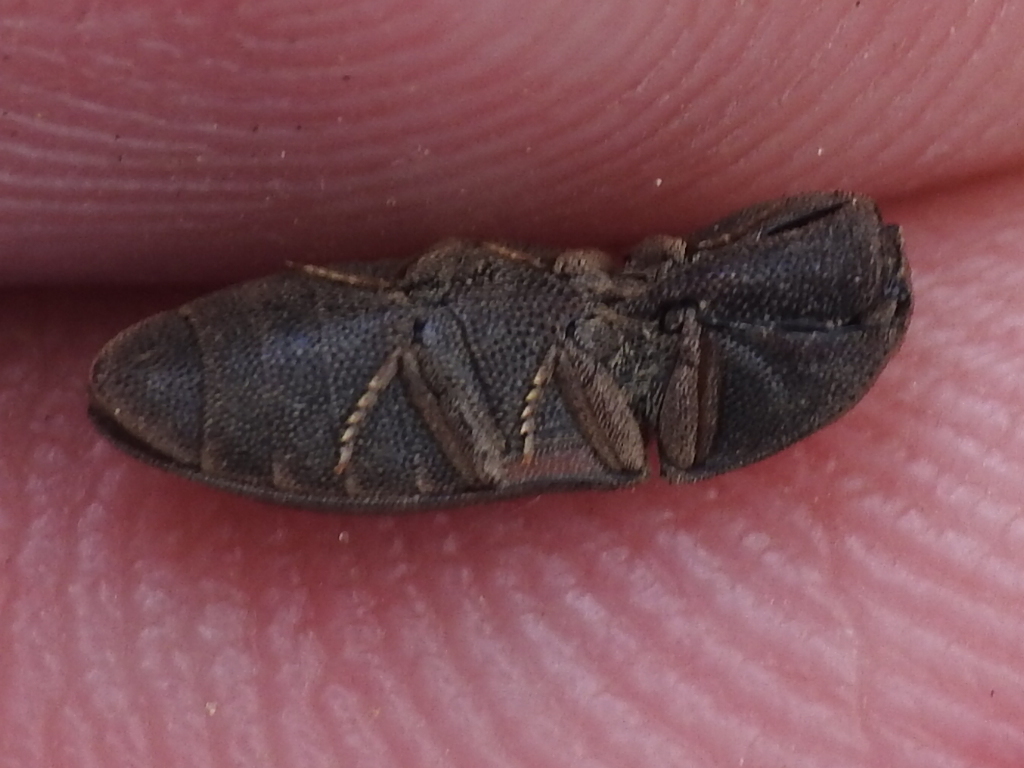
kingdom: Animalia
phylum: Arthropoda
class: Insecta
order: Coleoptera
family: Elateridae
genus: Agrypnus
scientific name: Agrypnus rectangularis
